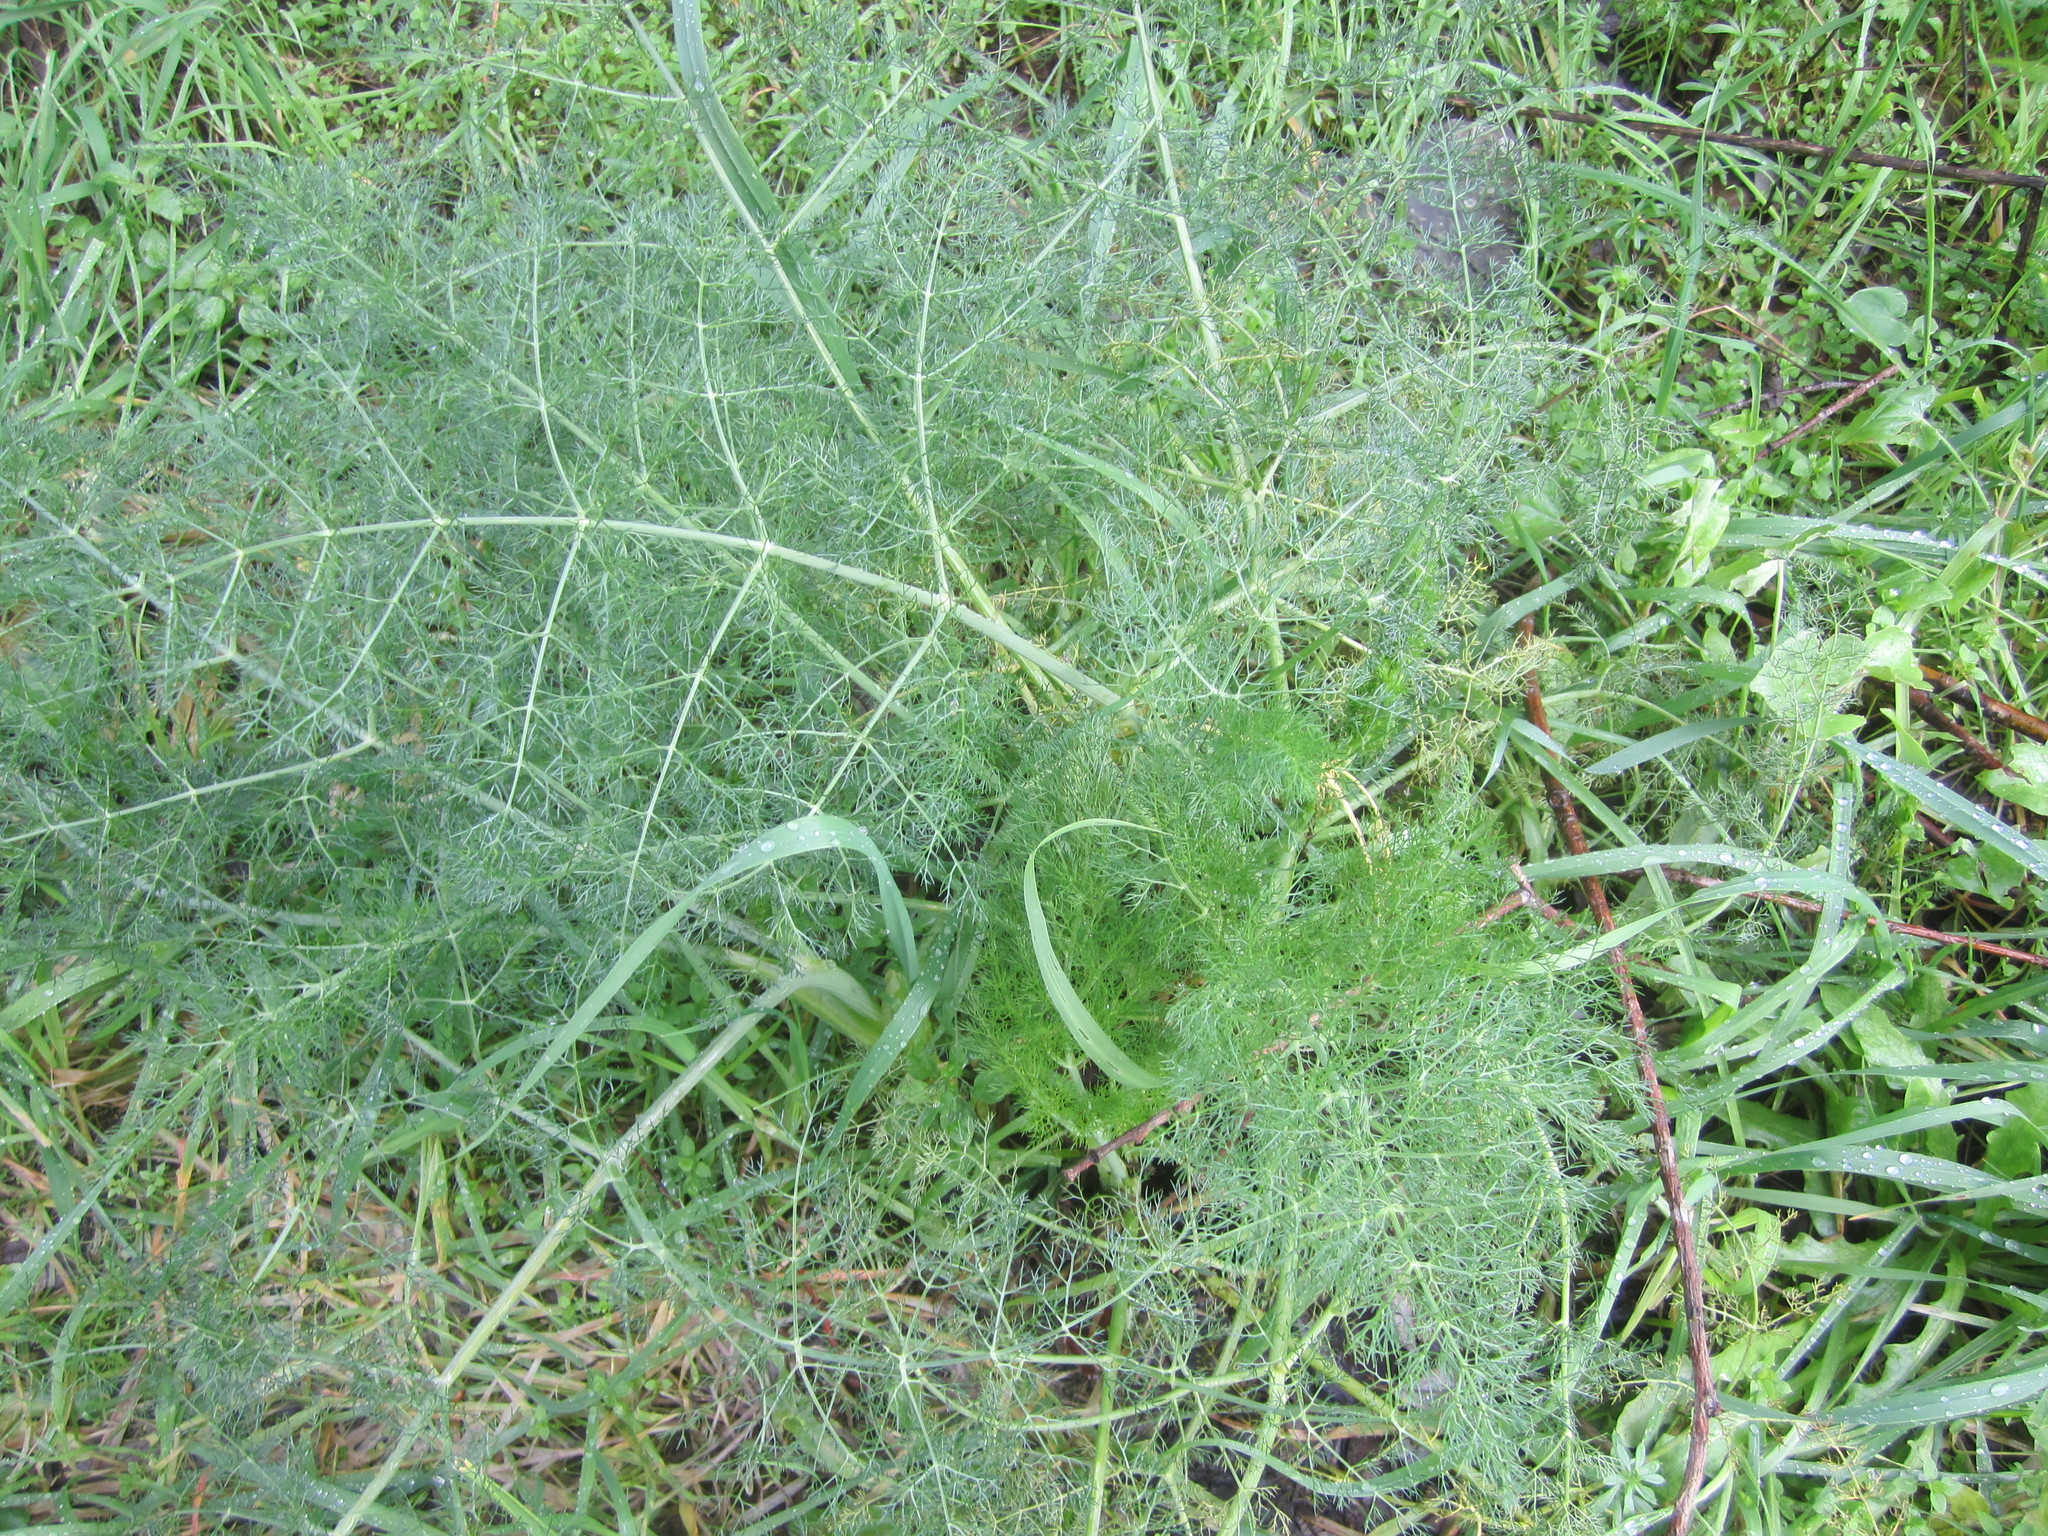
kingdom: Plantae
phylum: Tracheophyta
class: Magnoliopsida
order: Apiales
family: Apiaceae
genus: Foeniculum
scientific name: Foeniculum vulgare
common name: Fennel
